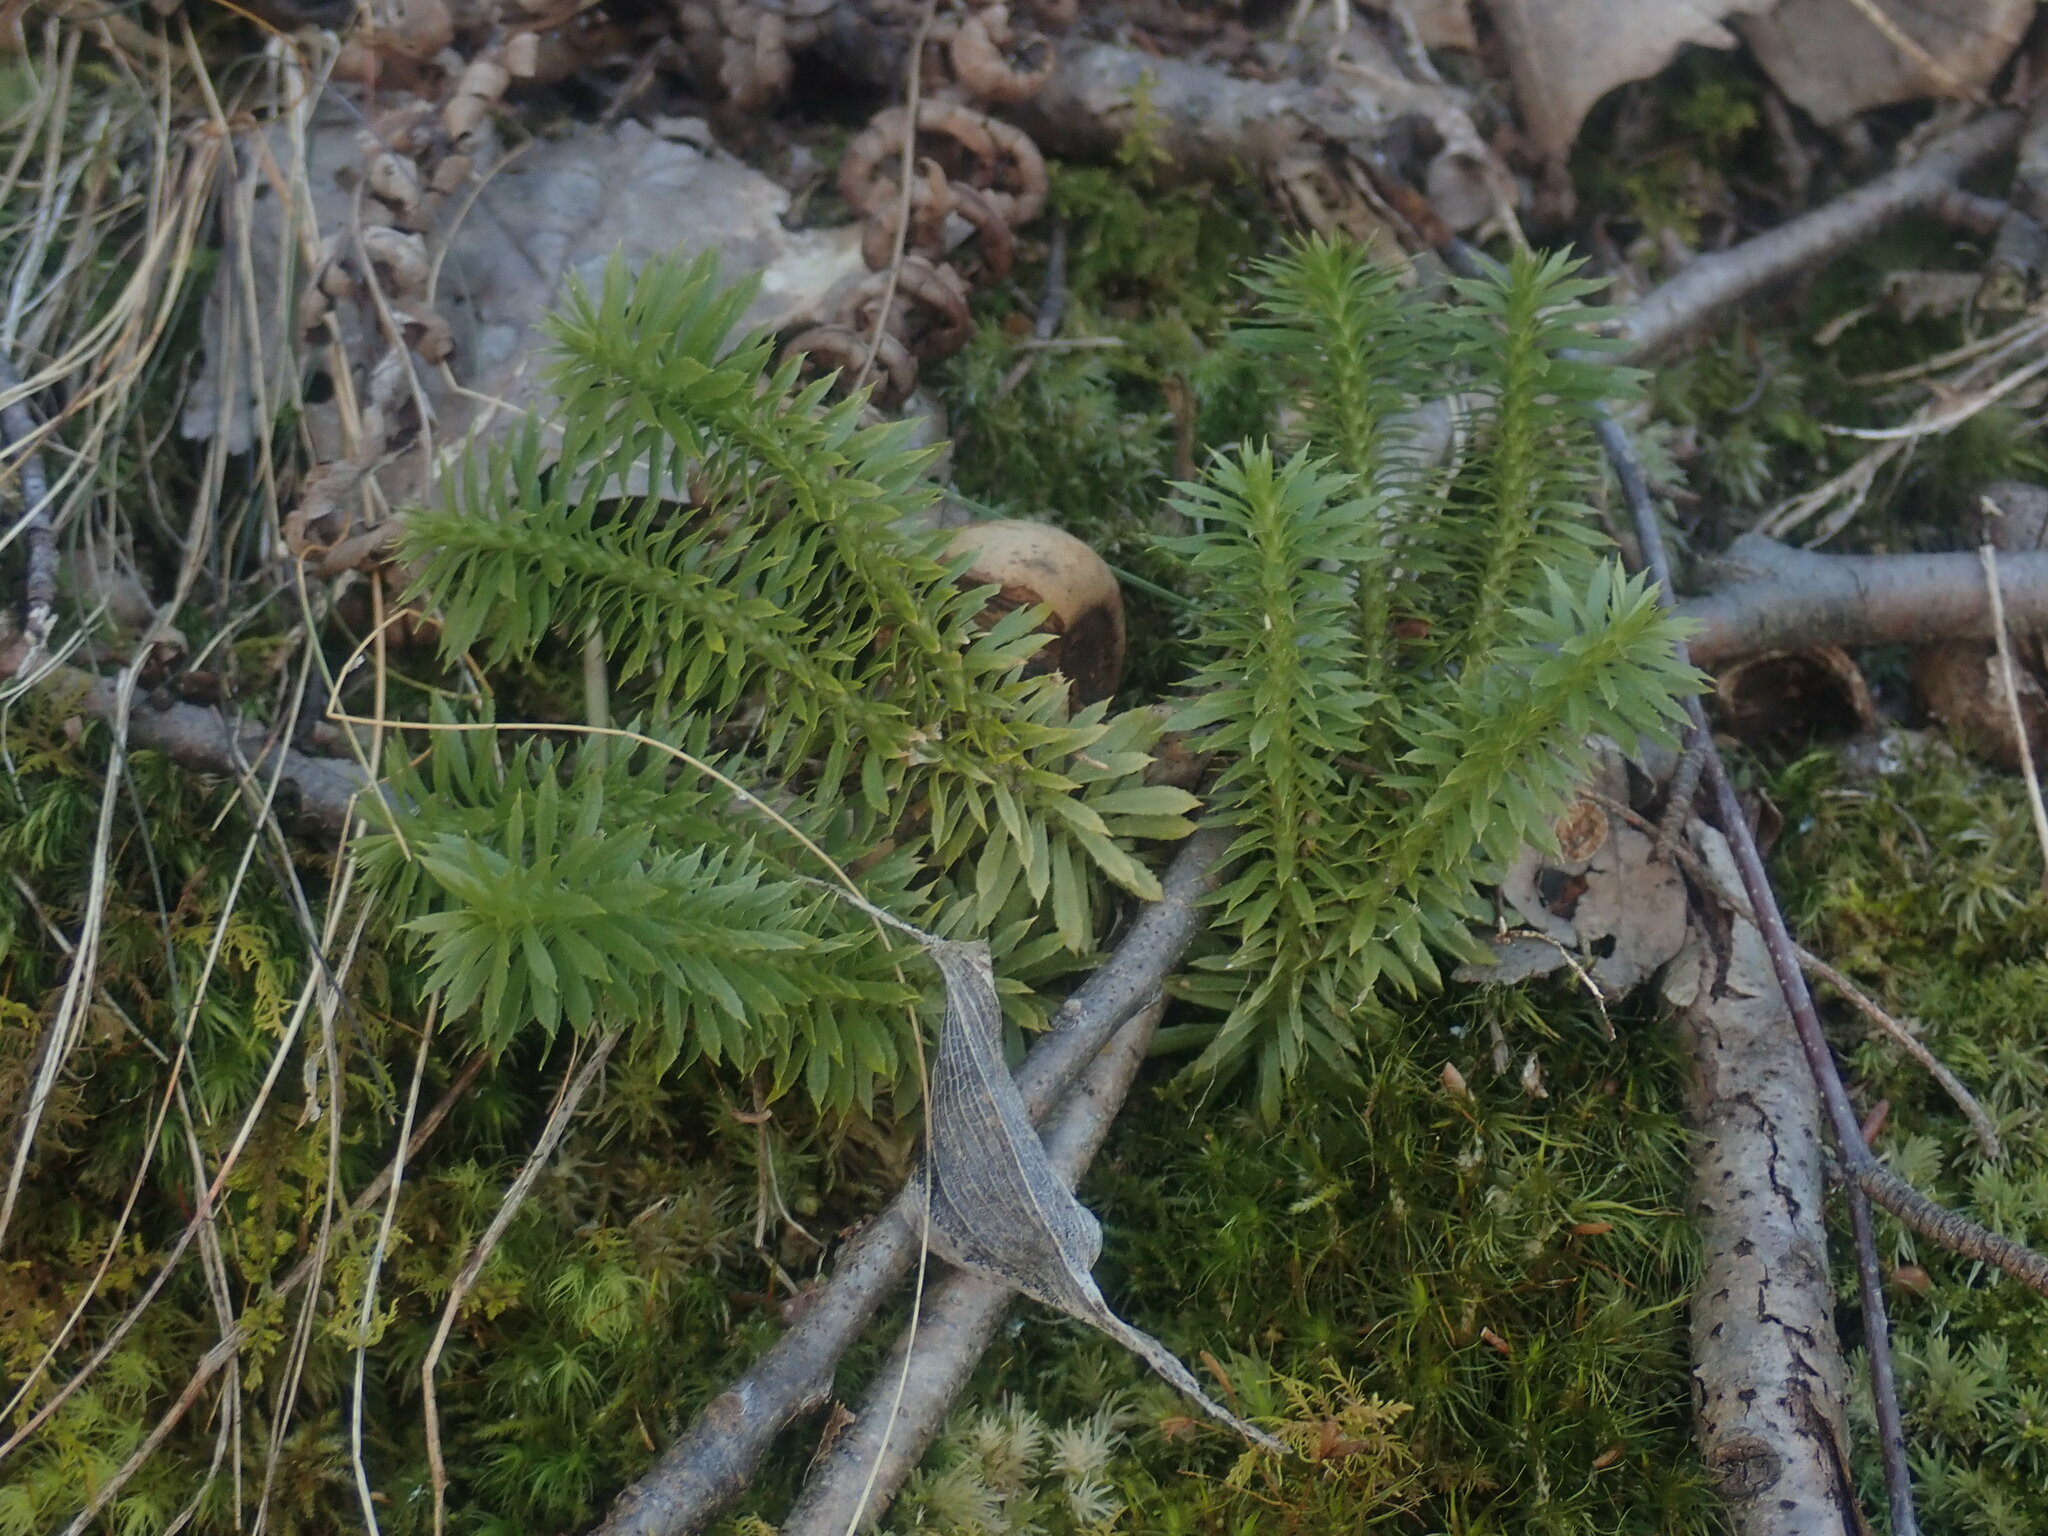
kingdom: Plantae
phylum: Tracheophyta
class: Lycopodiopsida
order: Lycopodiales
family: Lycopodiaceae
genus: Huperzia
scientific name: Huperzia lucidula
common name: Shining clubmoss
